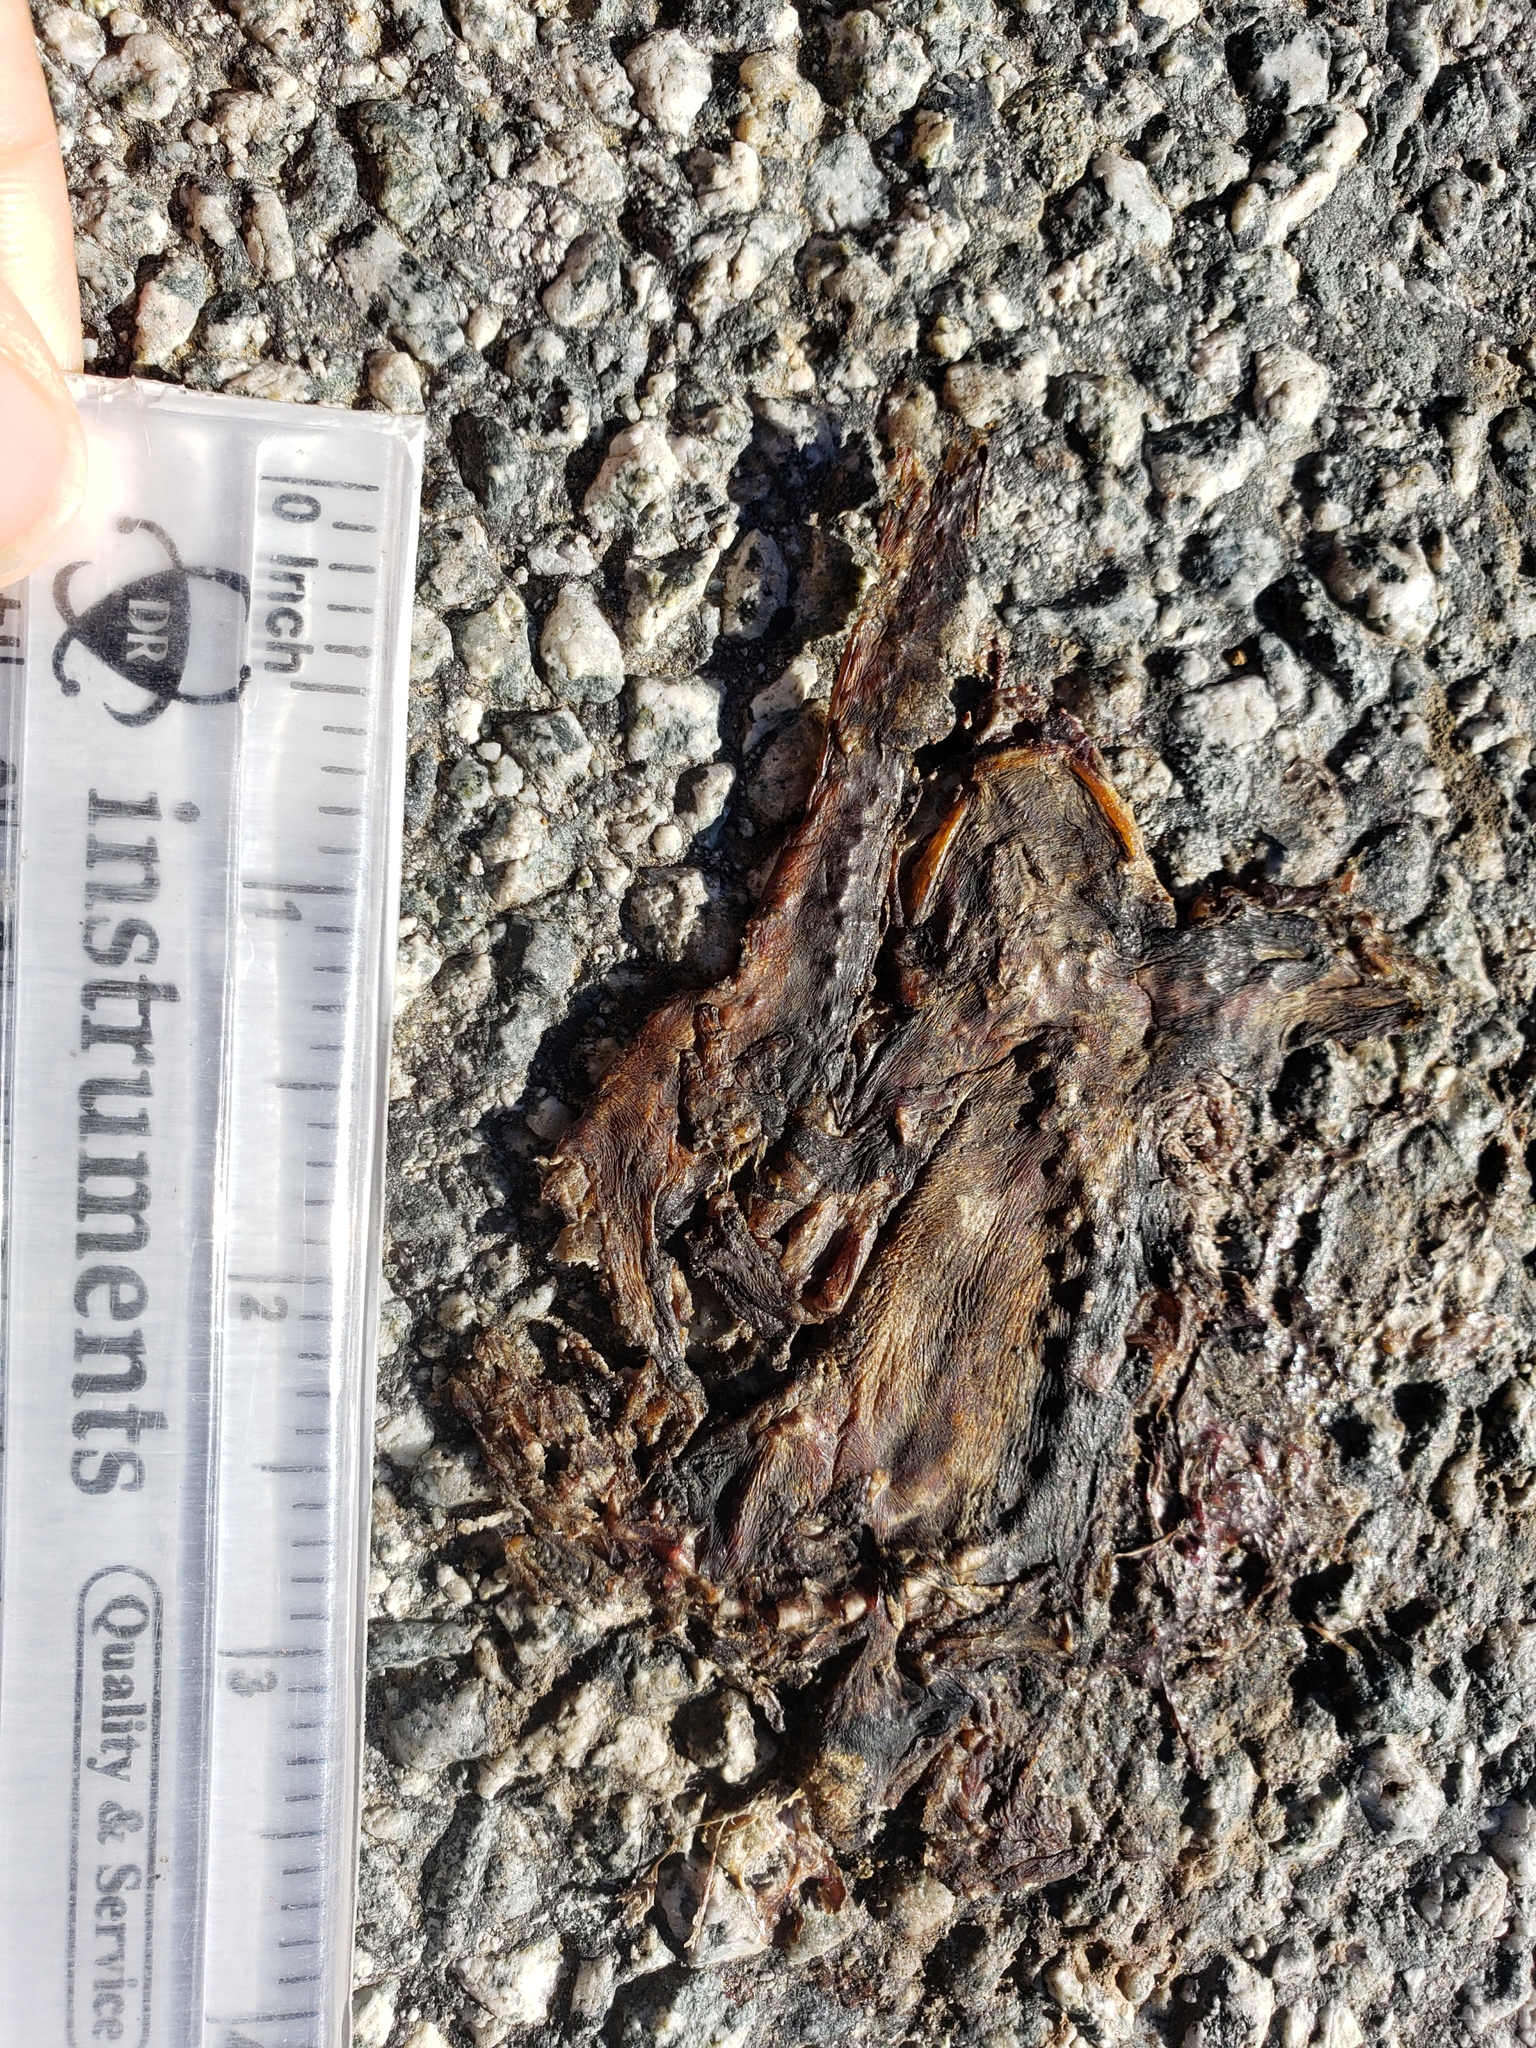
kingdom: Animalia
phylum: Chordata
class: Amphibia
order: Caudata
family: Salamandridae
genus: Taricha
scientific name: Taricha
